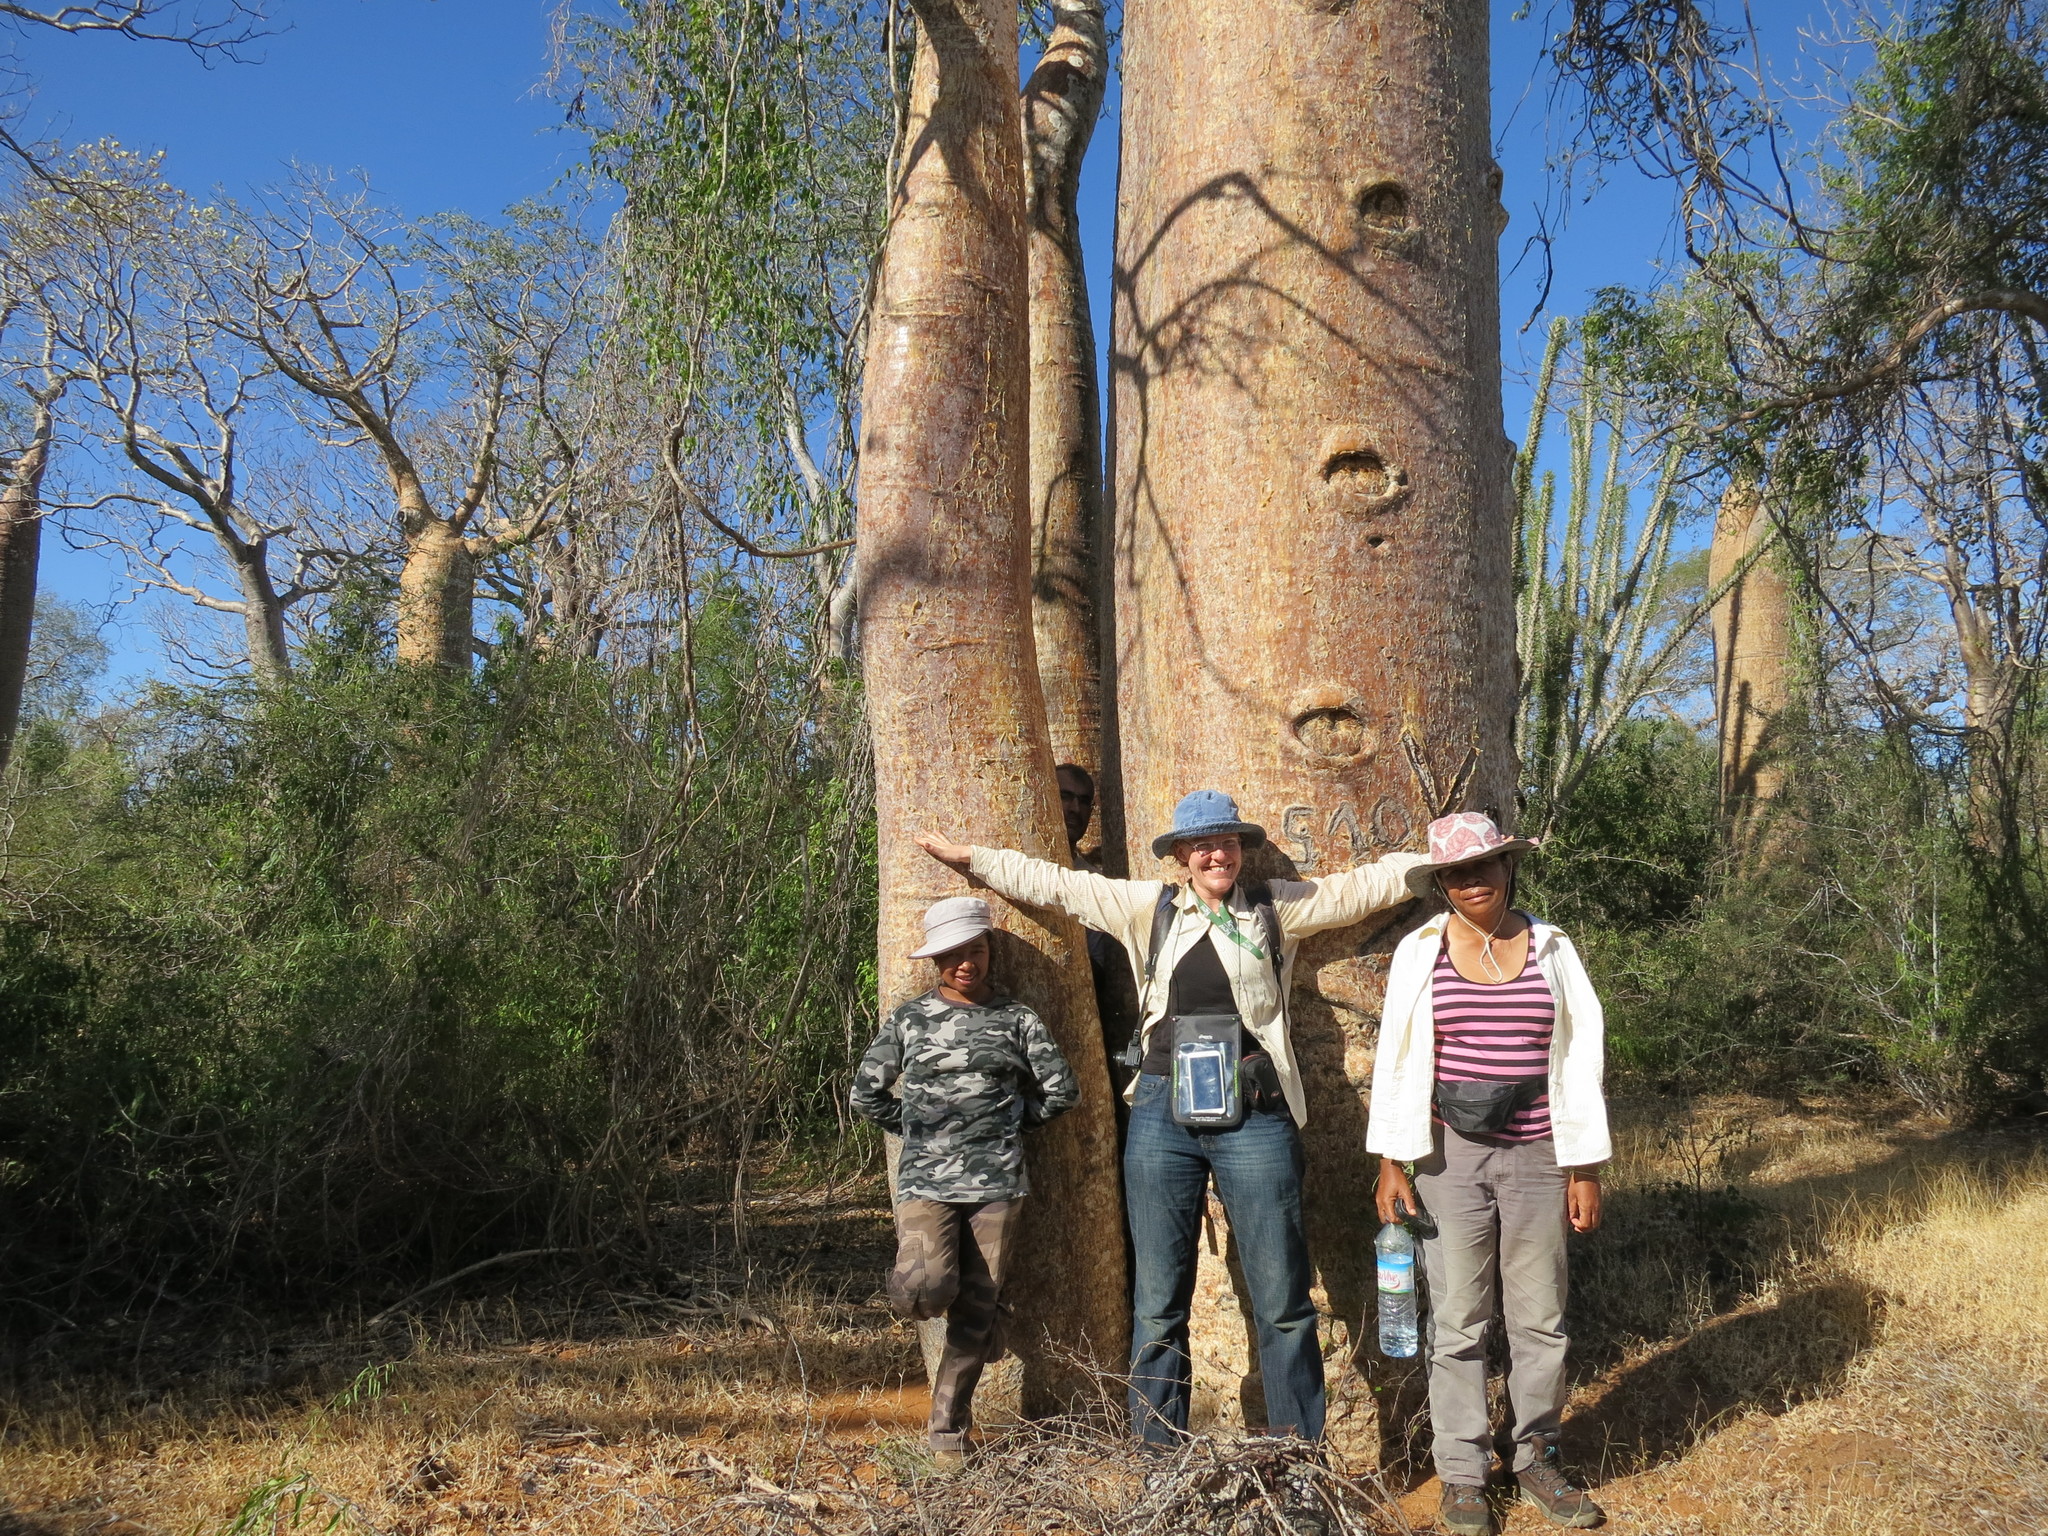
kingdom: Plantae
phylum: Tracheophyta
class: Magnoliopsida
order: Malvales
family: Malvaceae
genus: Adansonia
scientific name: Adansonia rubrostipa
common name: Fony baobab
